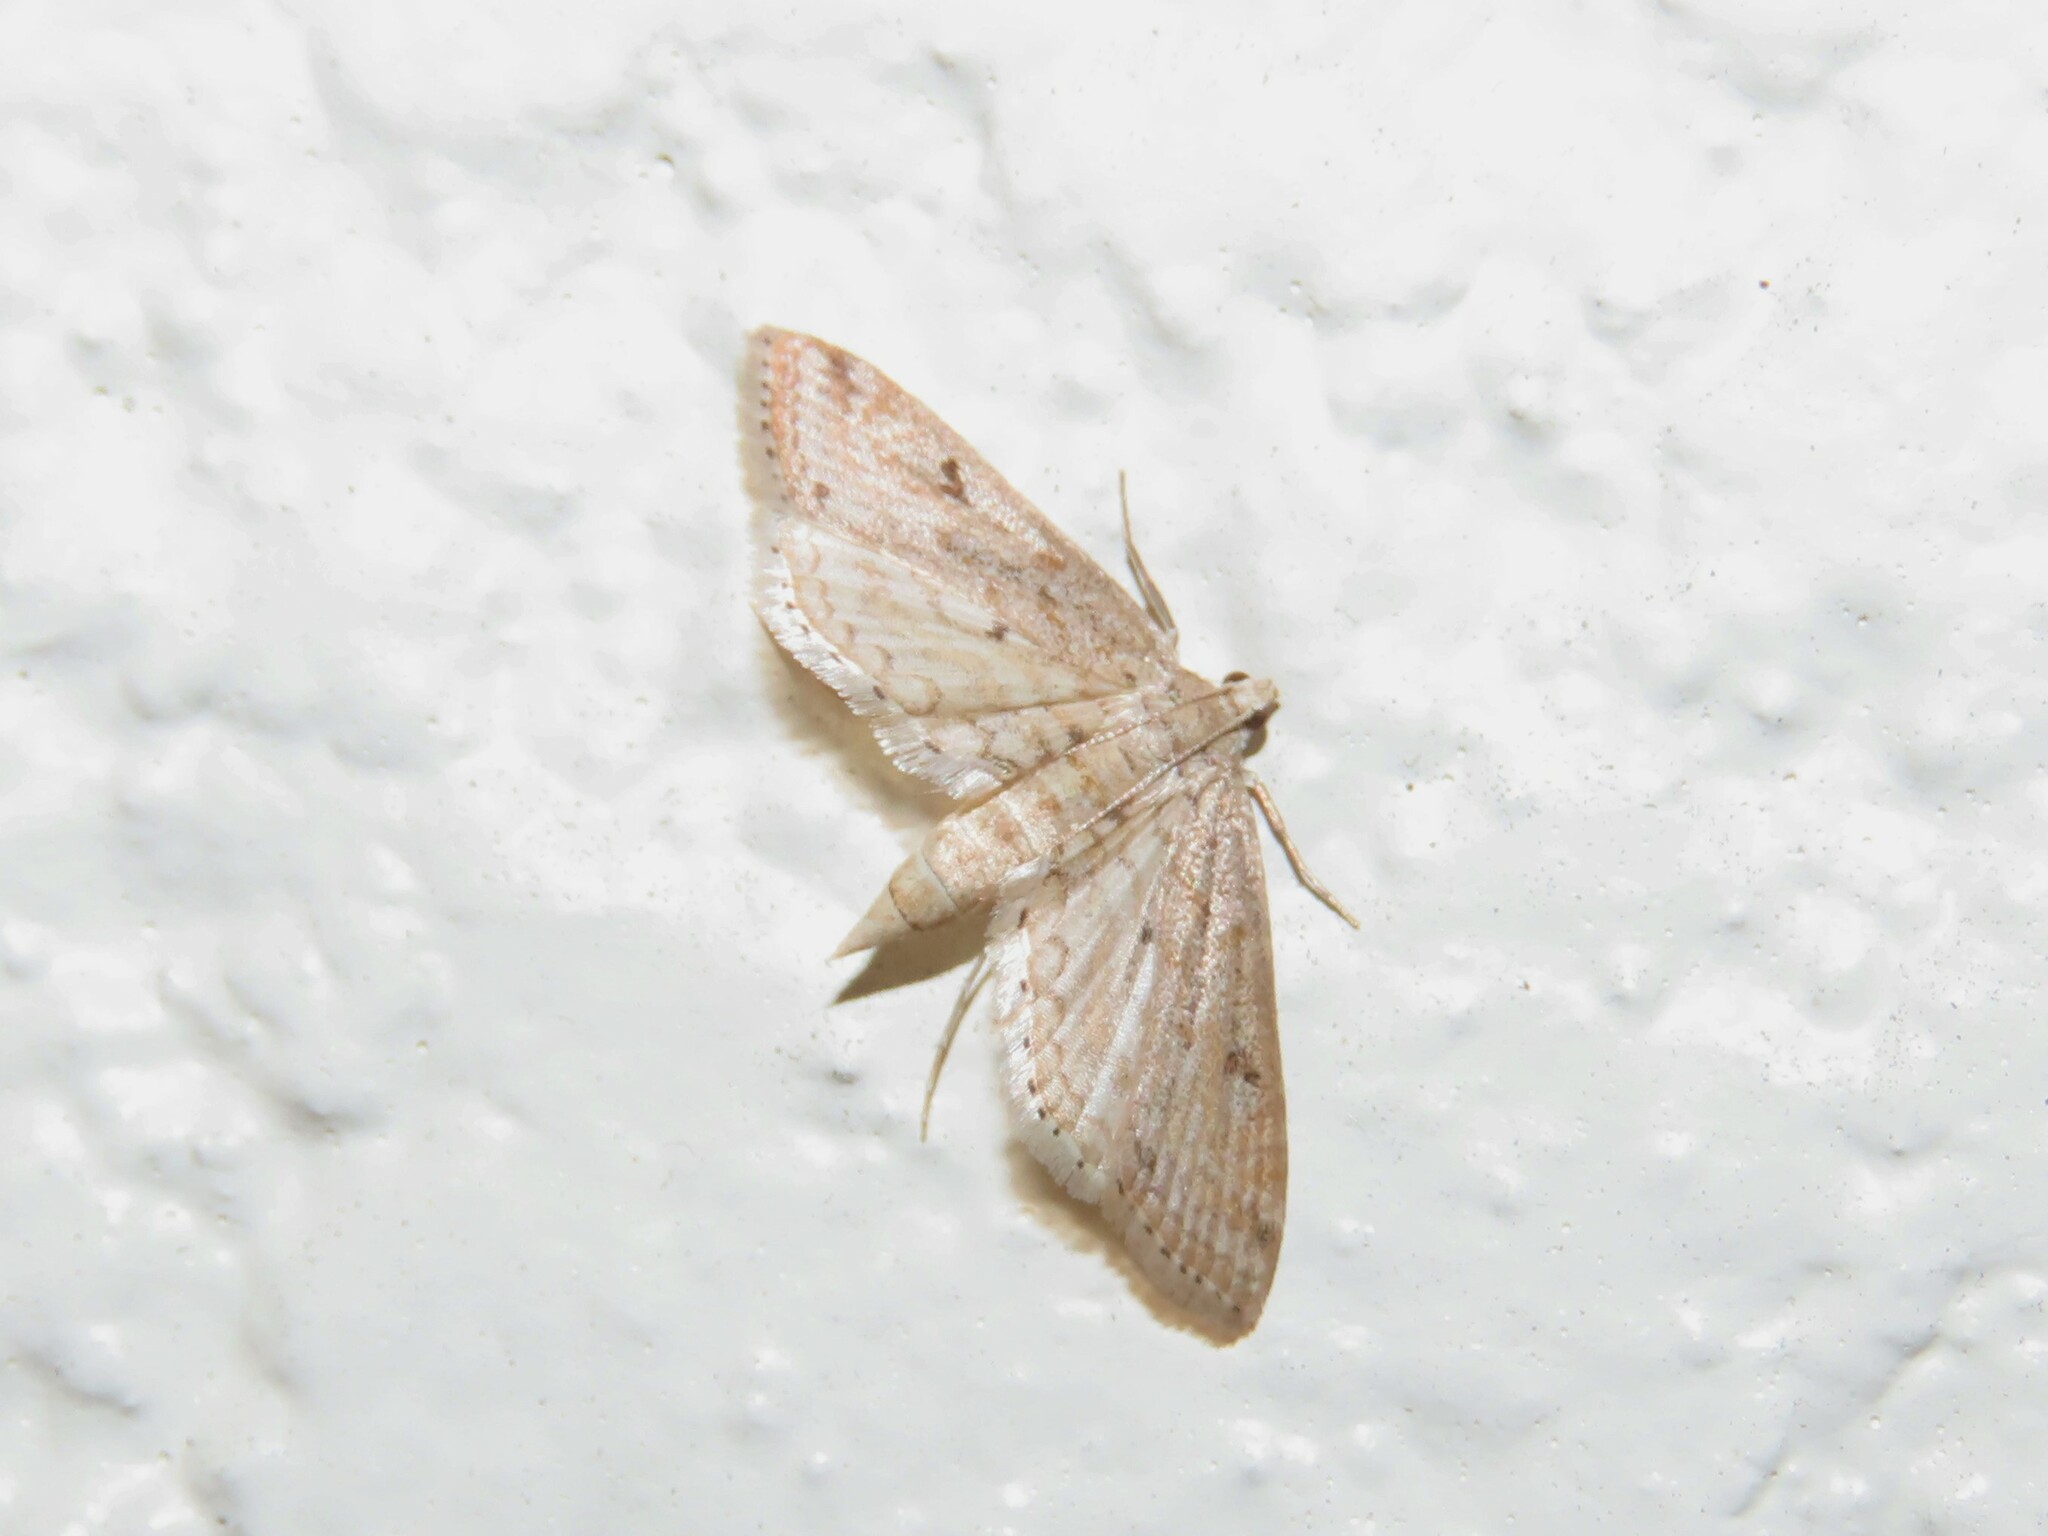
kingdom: Animalia
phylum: Arthropoda
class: Insecta
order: Lepidoptera
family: Crambidae
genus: Parapoynx
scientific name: Parapoynx allionealis
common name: Bladderwort casemaker
